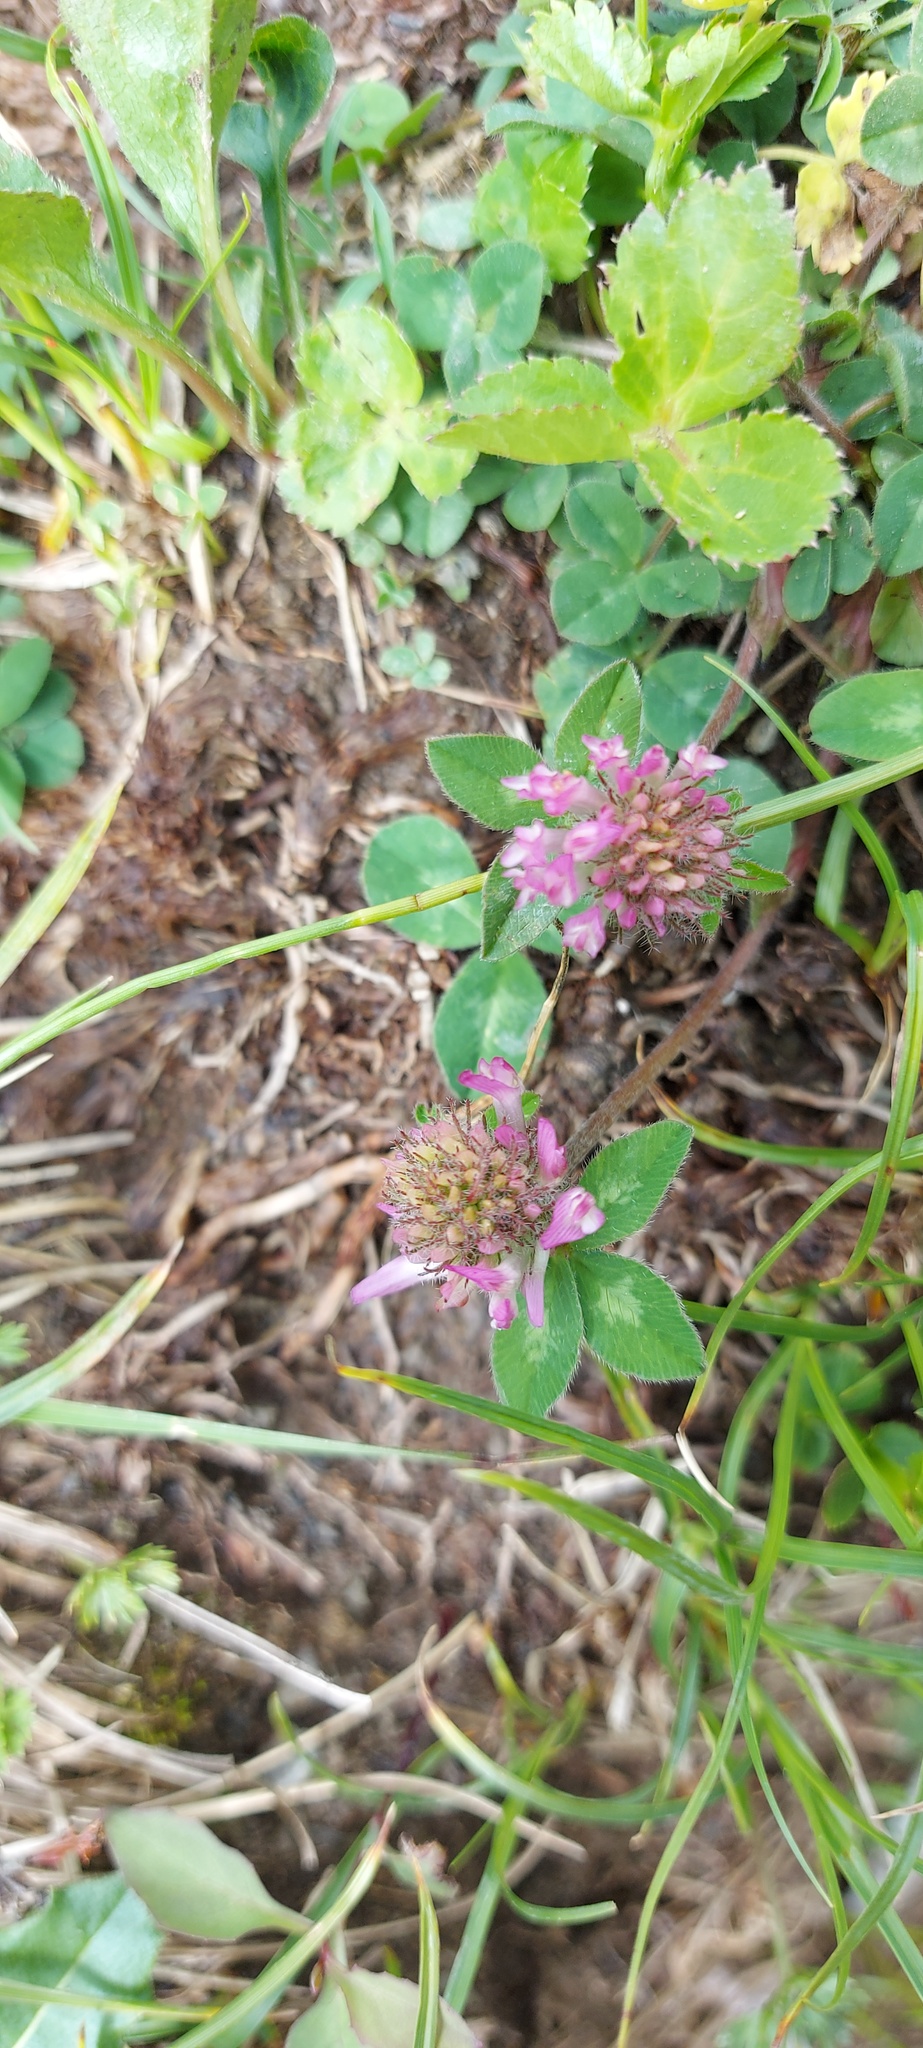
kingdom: Plantae
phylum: Tracheophyta
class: Magnoliopsida
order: Fabales
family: Fabaceae
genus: Trifolium
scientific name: Trifolium pratense
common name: Red clover
